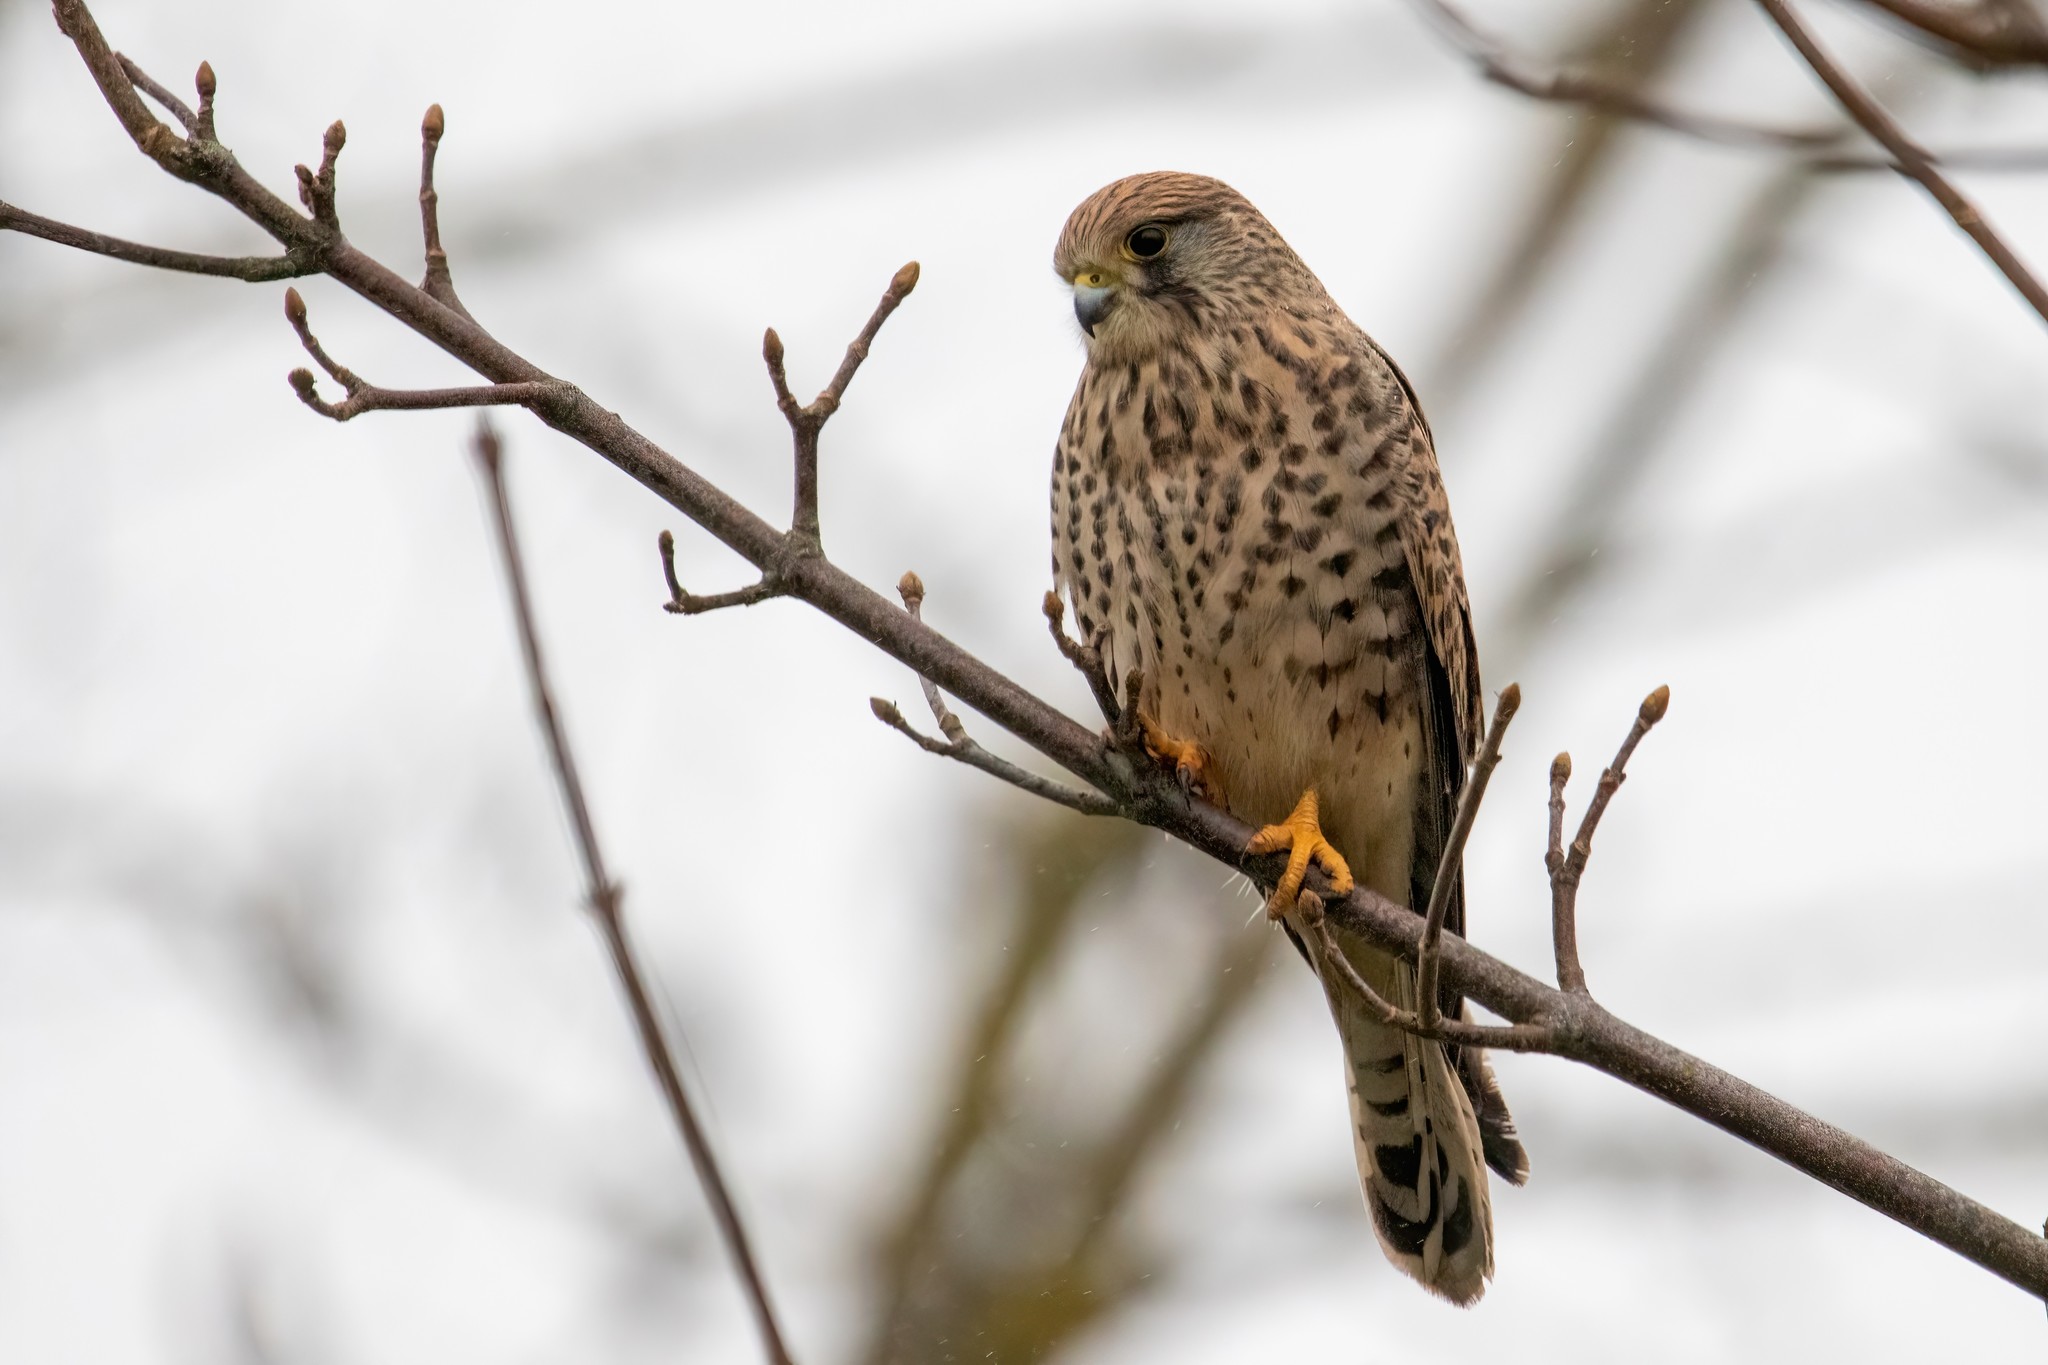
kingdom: Animalia
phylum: Chordata
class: Aves
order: Falconiformes
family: Falconidae
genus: Falco
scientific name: Falco tinnunculus
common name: Common kestrel
